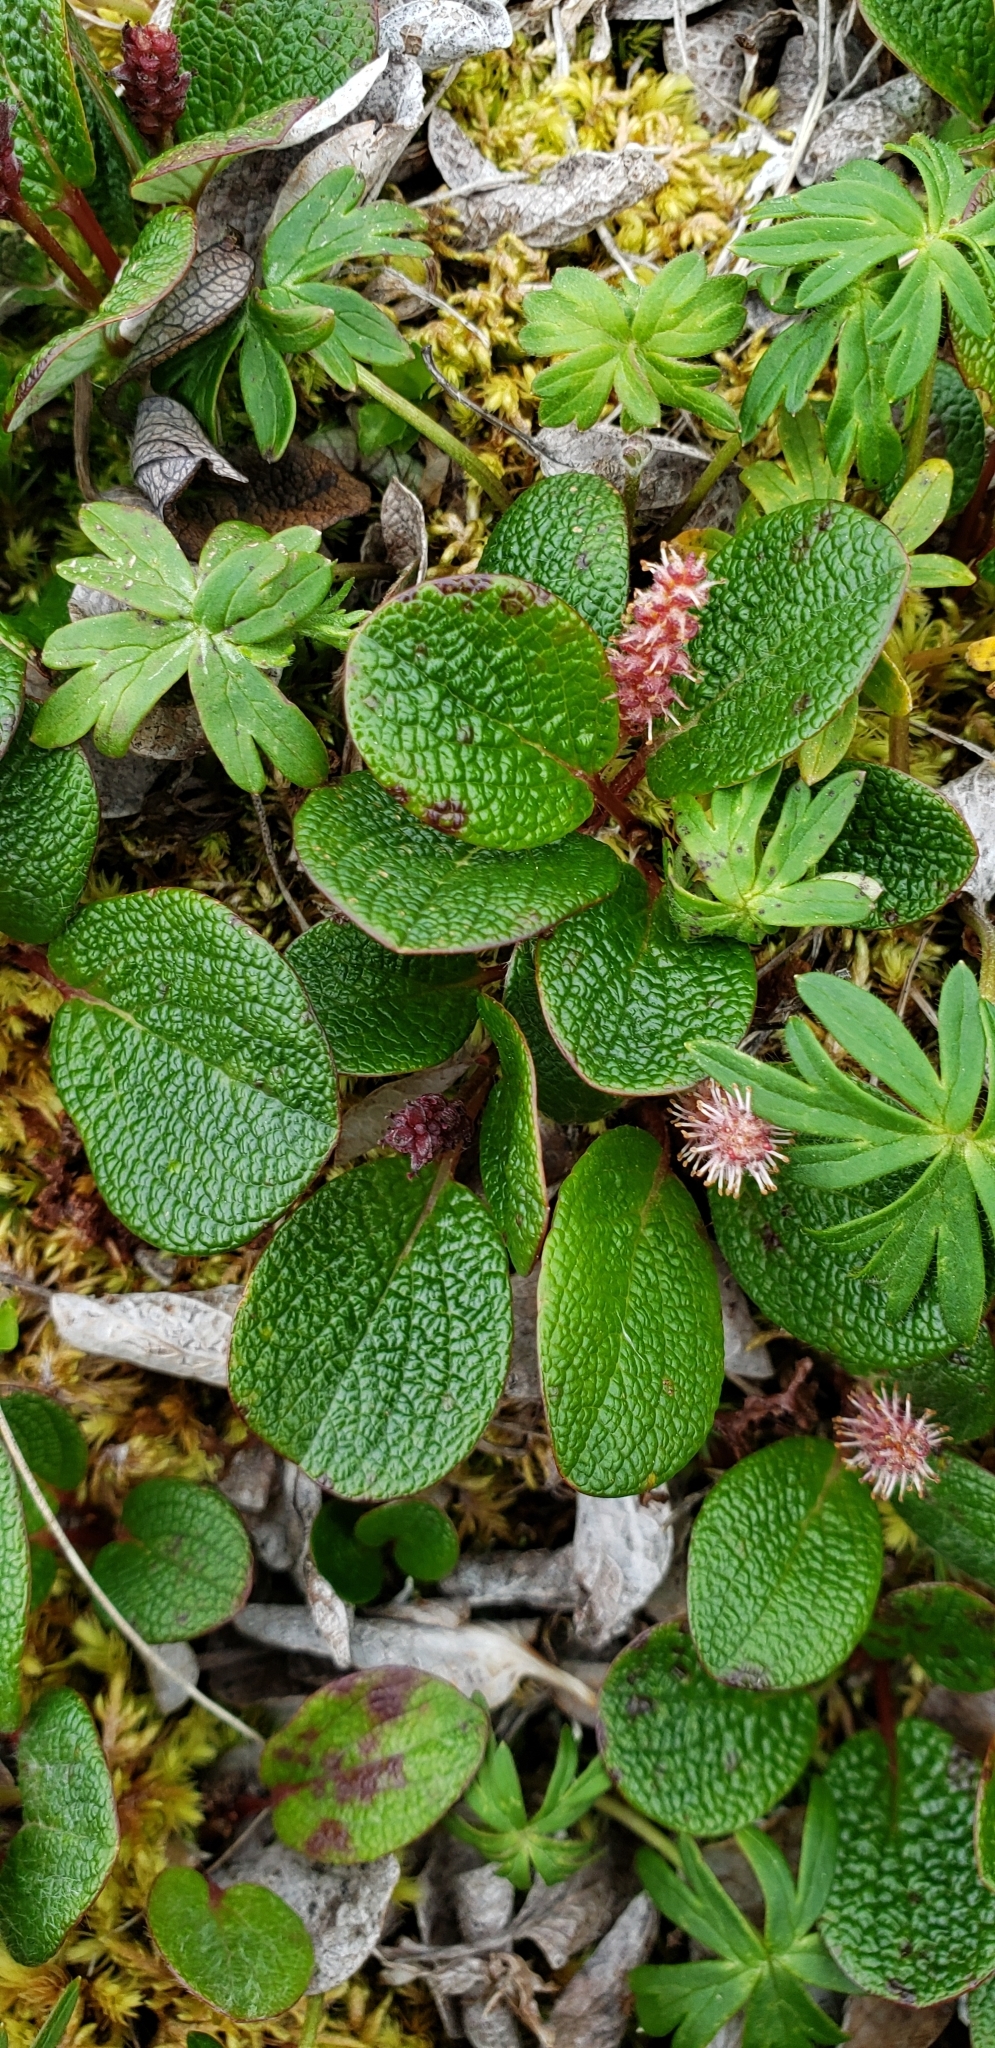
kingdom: Plantae
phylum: Tracheophyta
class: Magnoliopsida
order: Malpighiales
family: Salicaceae
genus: Salix
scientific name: Salix reticulata
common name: Net-leaved willow
